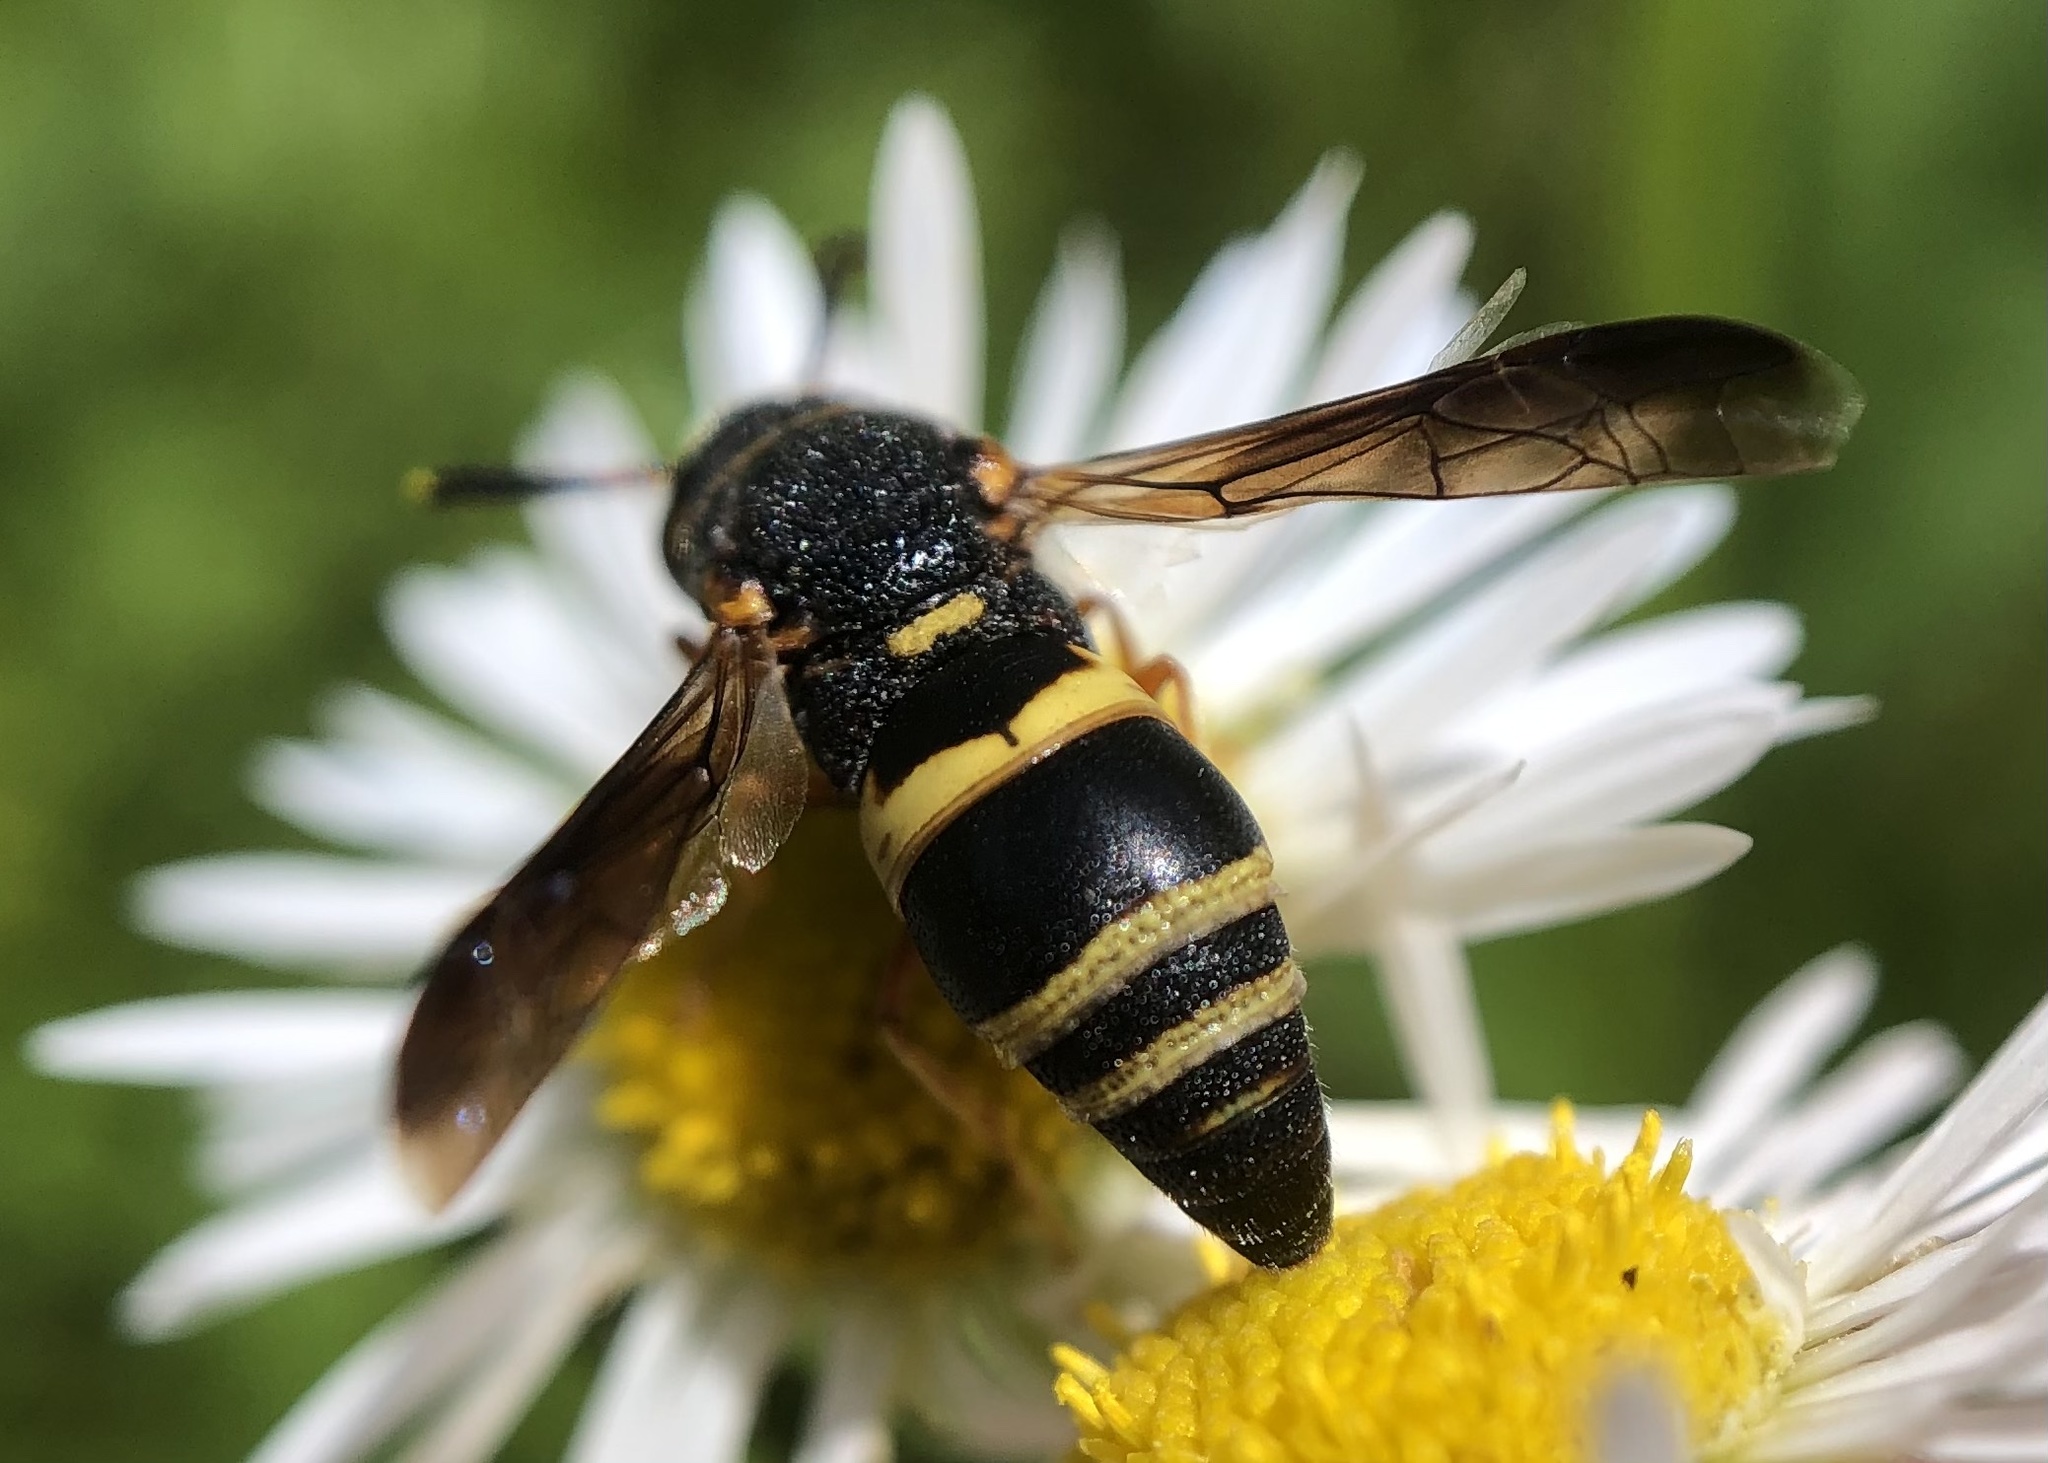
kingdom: Animalia
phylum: Arthropoda
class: Insecta
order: Hymenoptera
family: Eumenidae
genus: Euodynerus
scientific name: Euodynerus hidalgo
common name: Wasp
